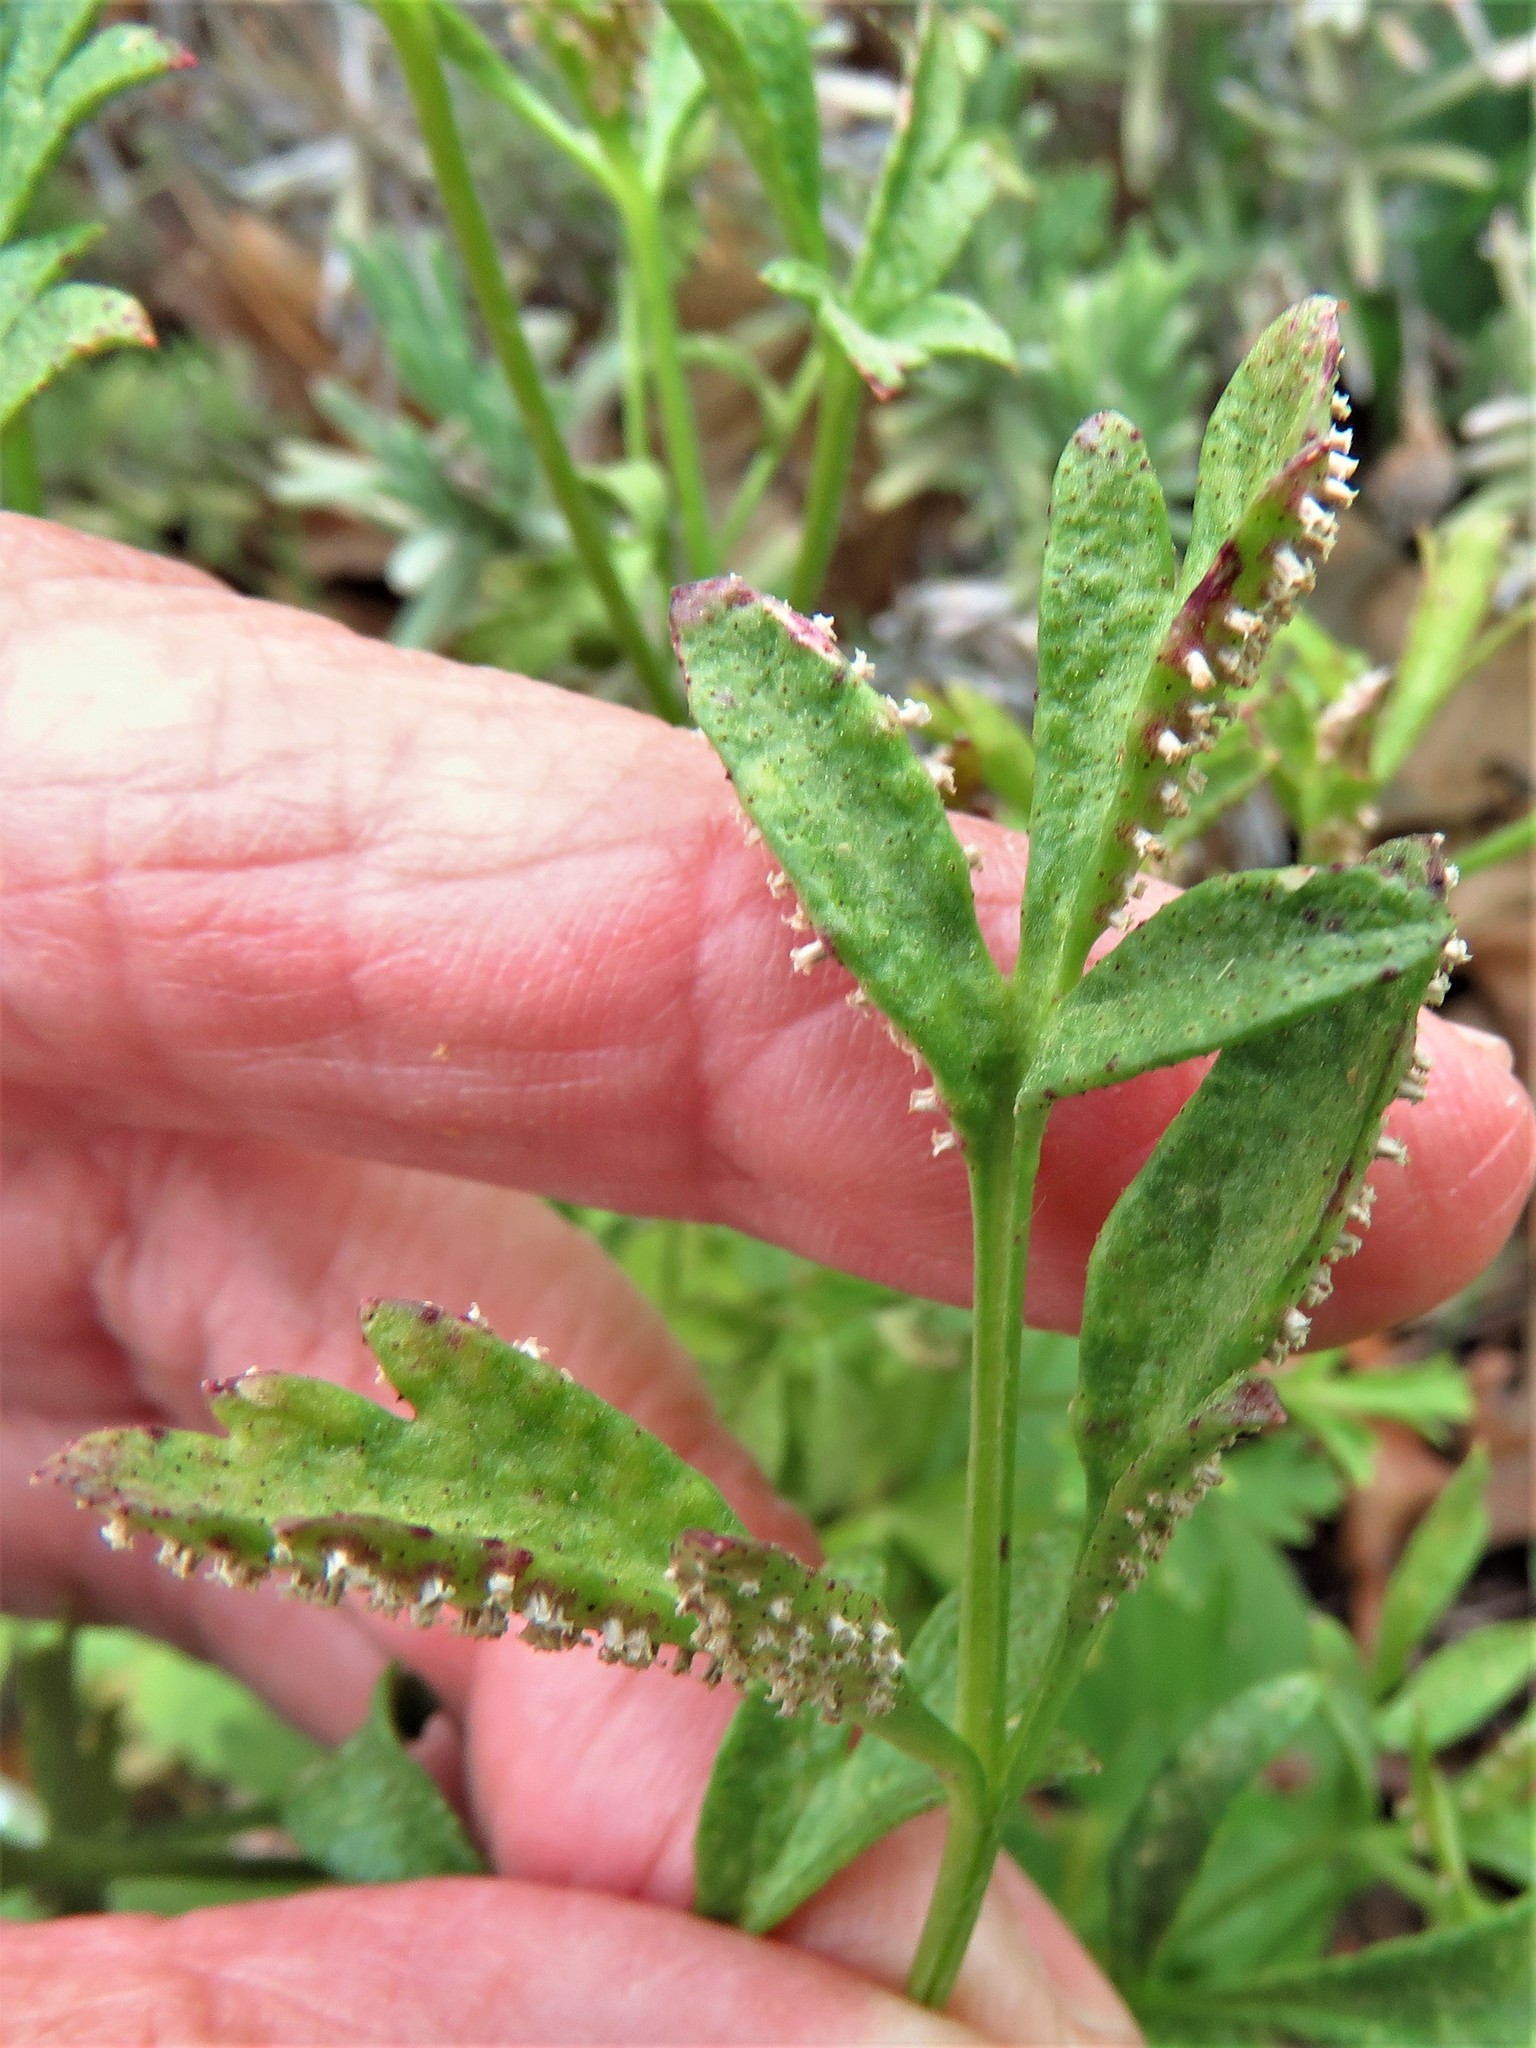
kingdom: Fungi
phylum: Basidiomycota
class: Pucciniomycetes
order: Pucciniales
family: Tranzscheliaceae
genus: Tranzschelia
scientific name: Tranzschelia cohaesa
